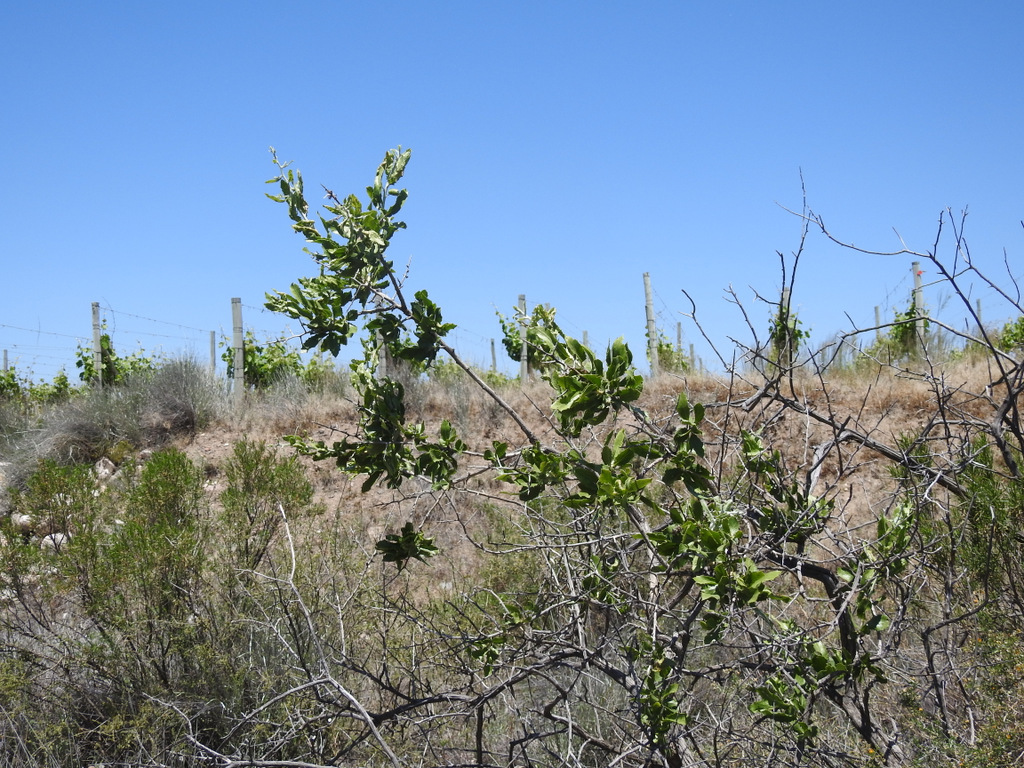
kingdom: Plantae
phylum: Tracheophyta
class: Magnoliopsida
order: Asterales
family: Asteraceae
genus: Proustia
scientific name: Proustia cuneifolia
